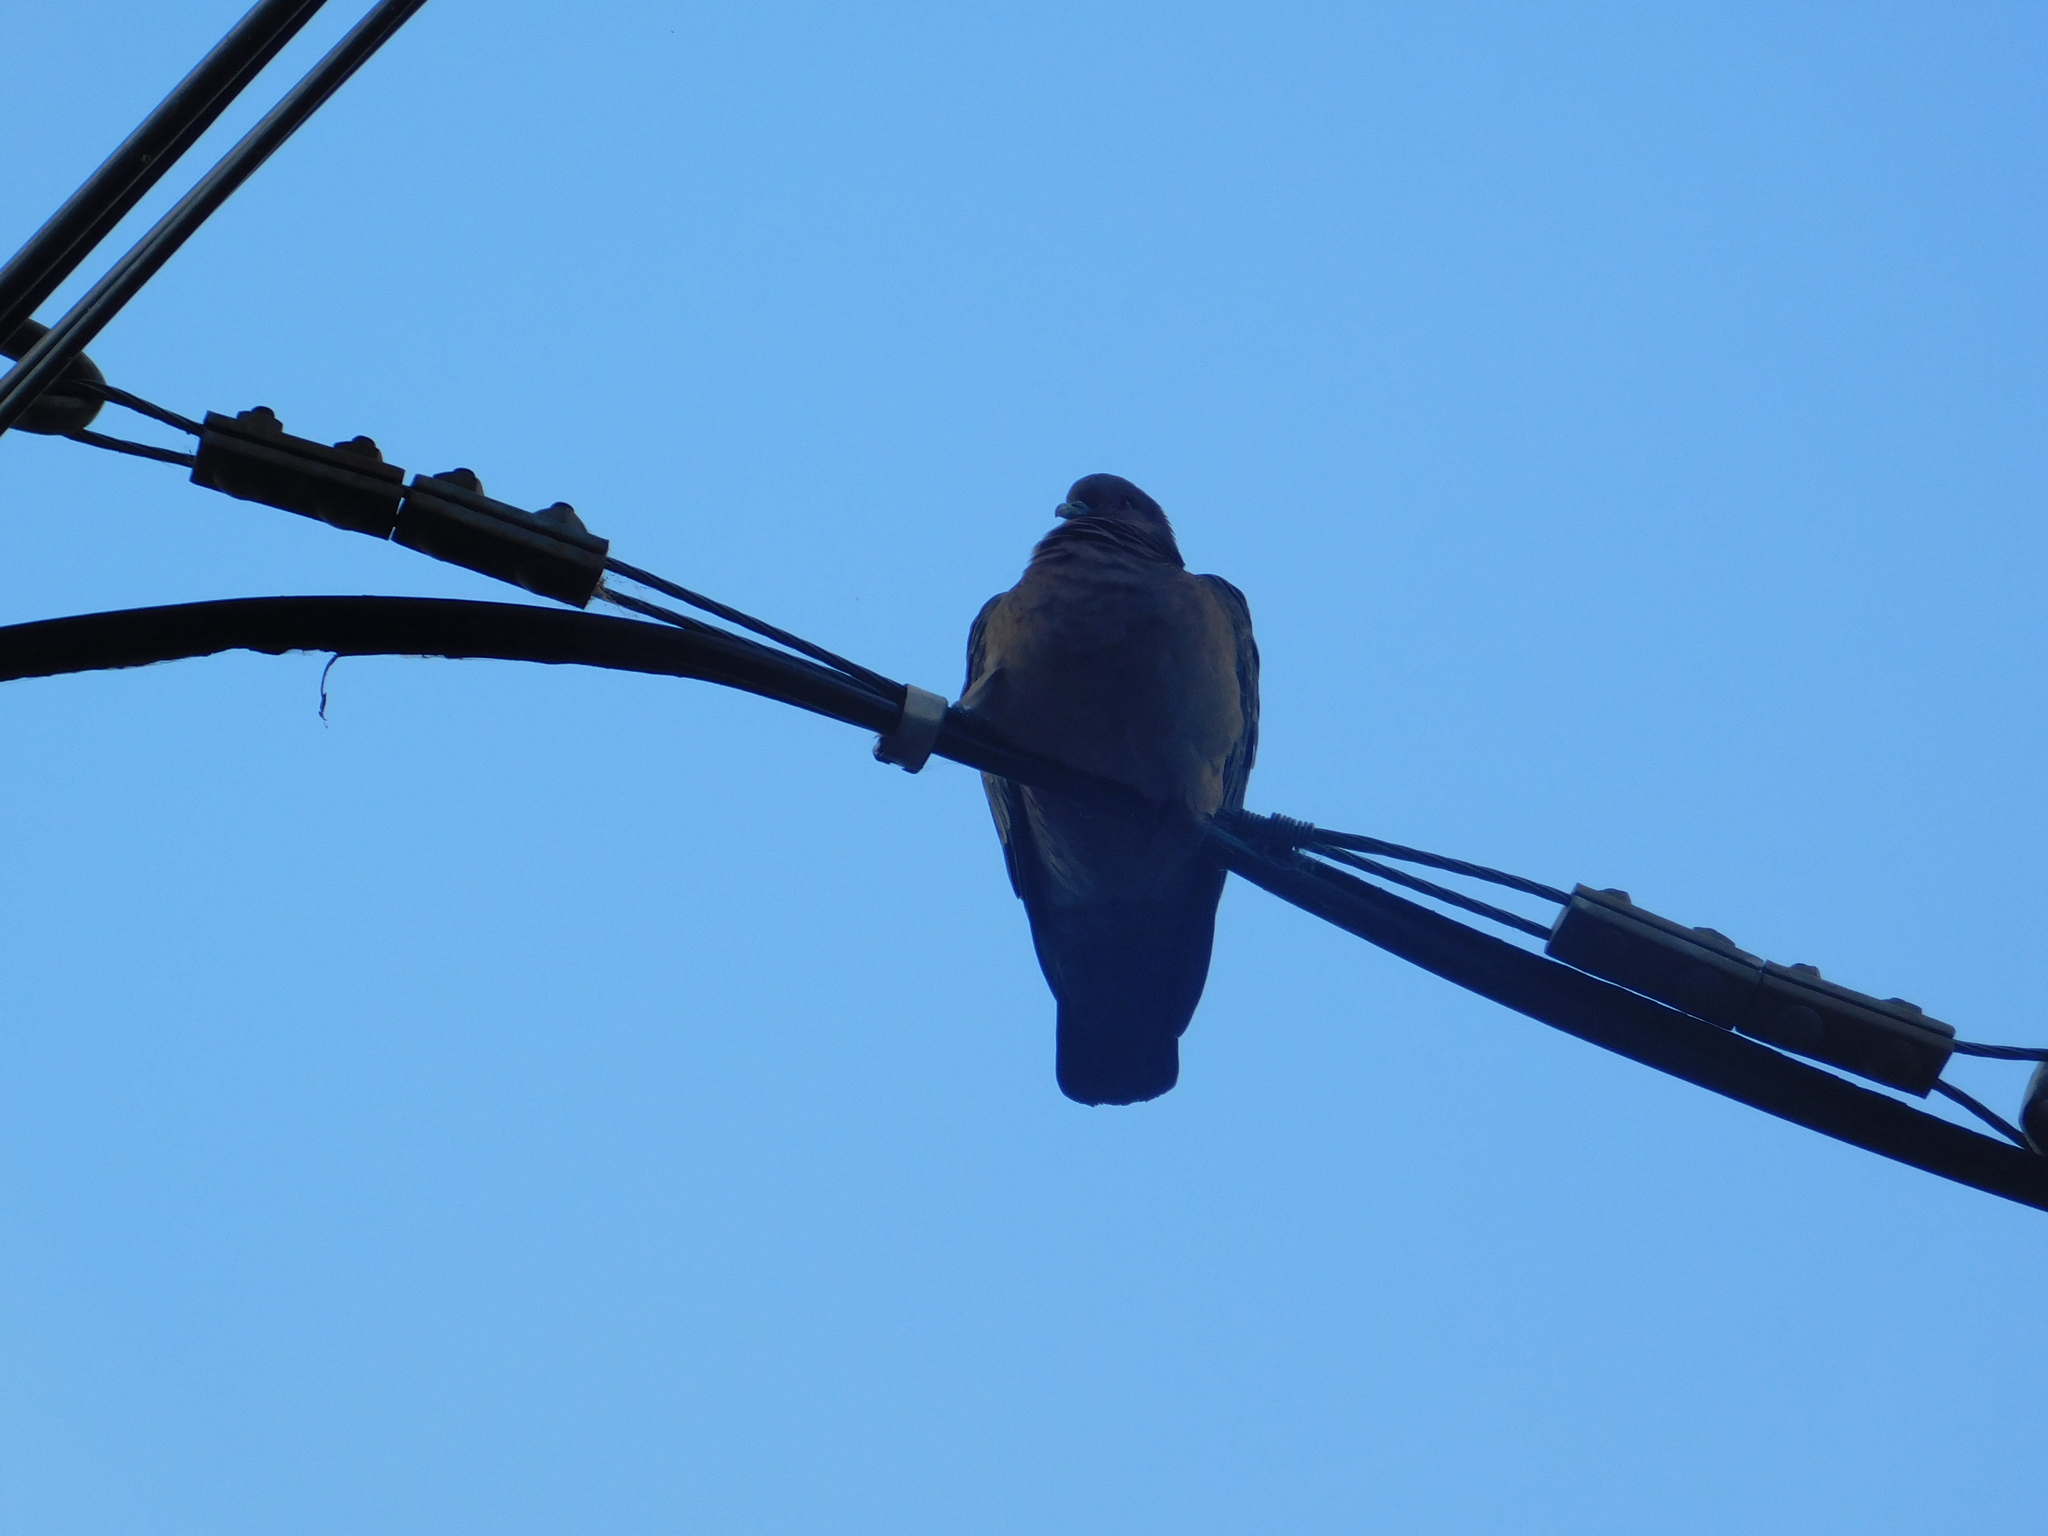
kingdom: Animalia
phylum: Chordata
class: Aves
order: Columbiformes
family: Columbidae
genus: Patagioenas
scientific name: Patagioenas picazuro
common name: Picazuro pigeon
